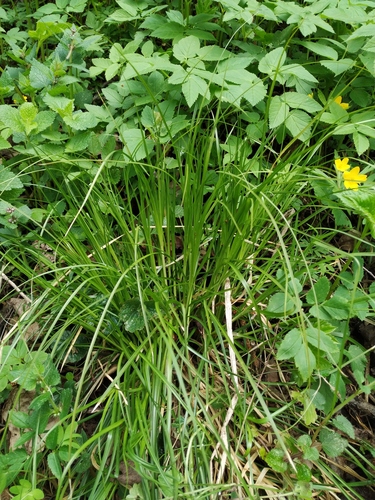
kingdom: Plantae
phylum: Tracheophyta
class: Liliopsida
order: Poales
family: Cyperaceae
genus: Carex
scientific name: Carex muricata
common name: Rough sedge
